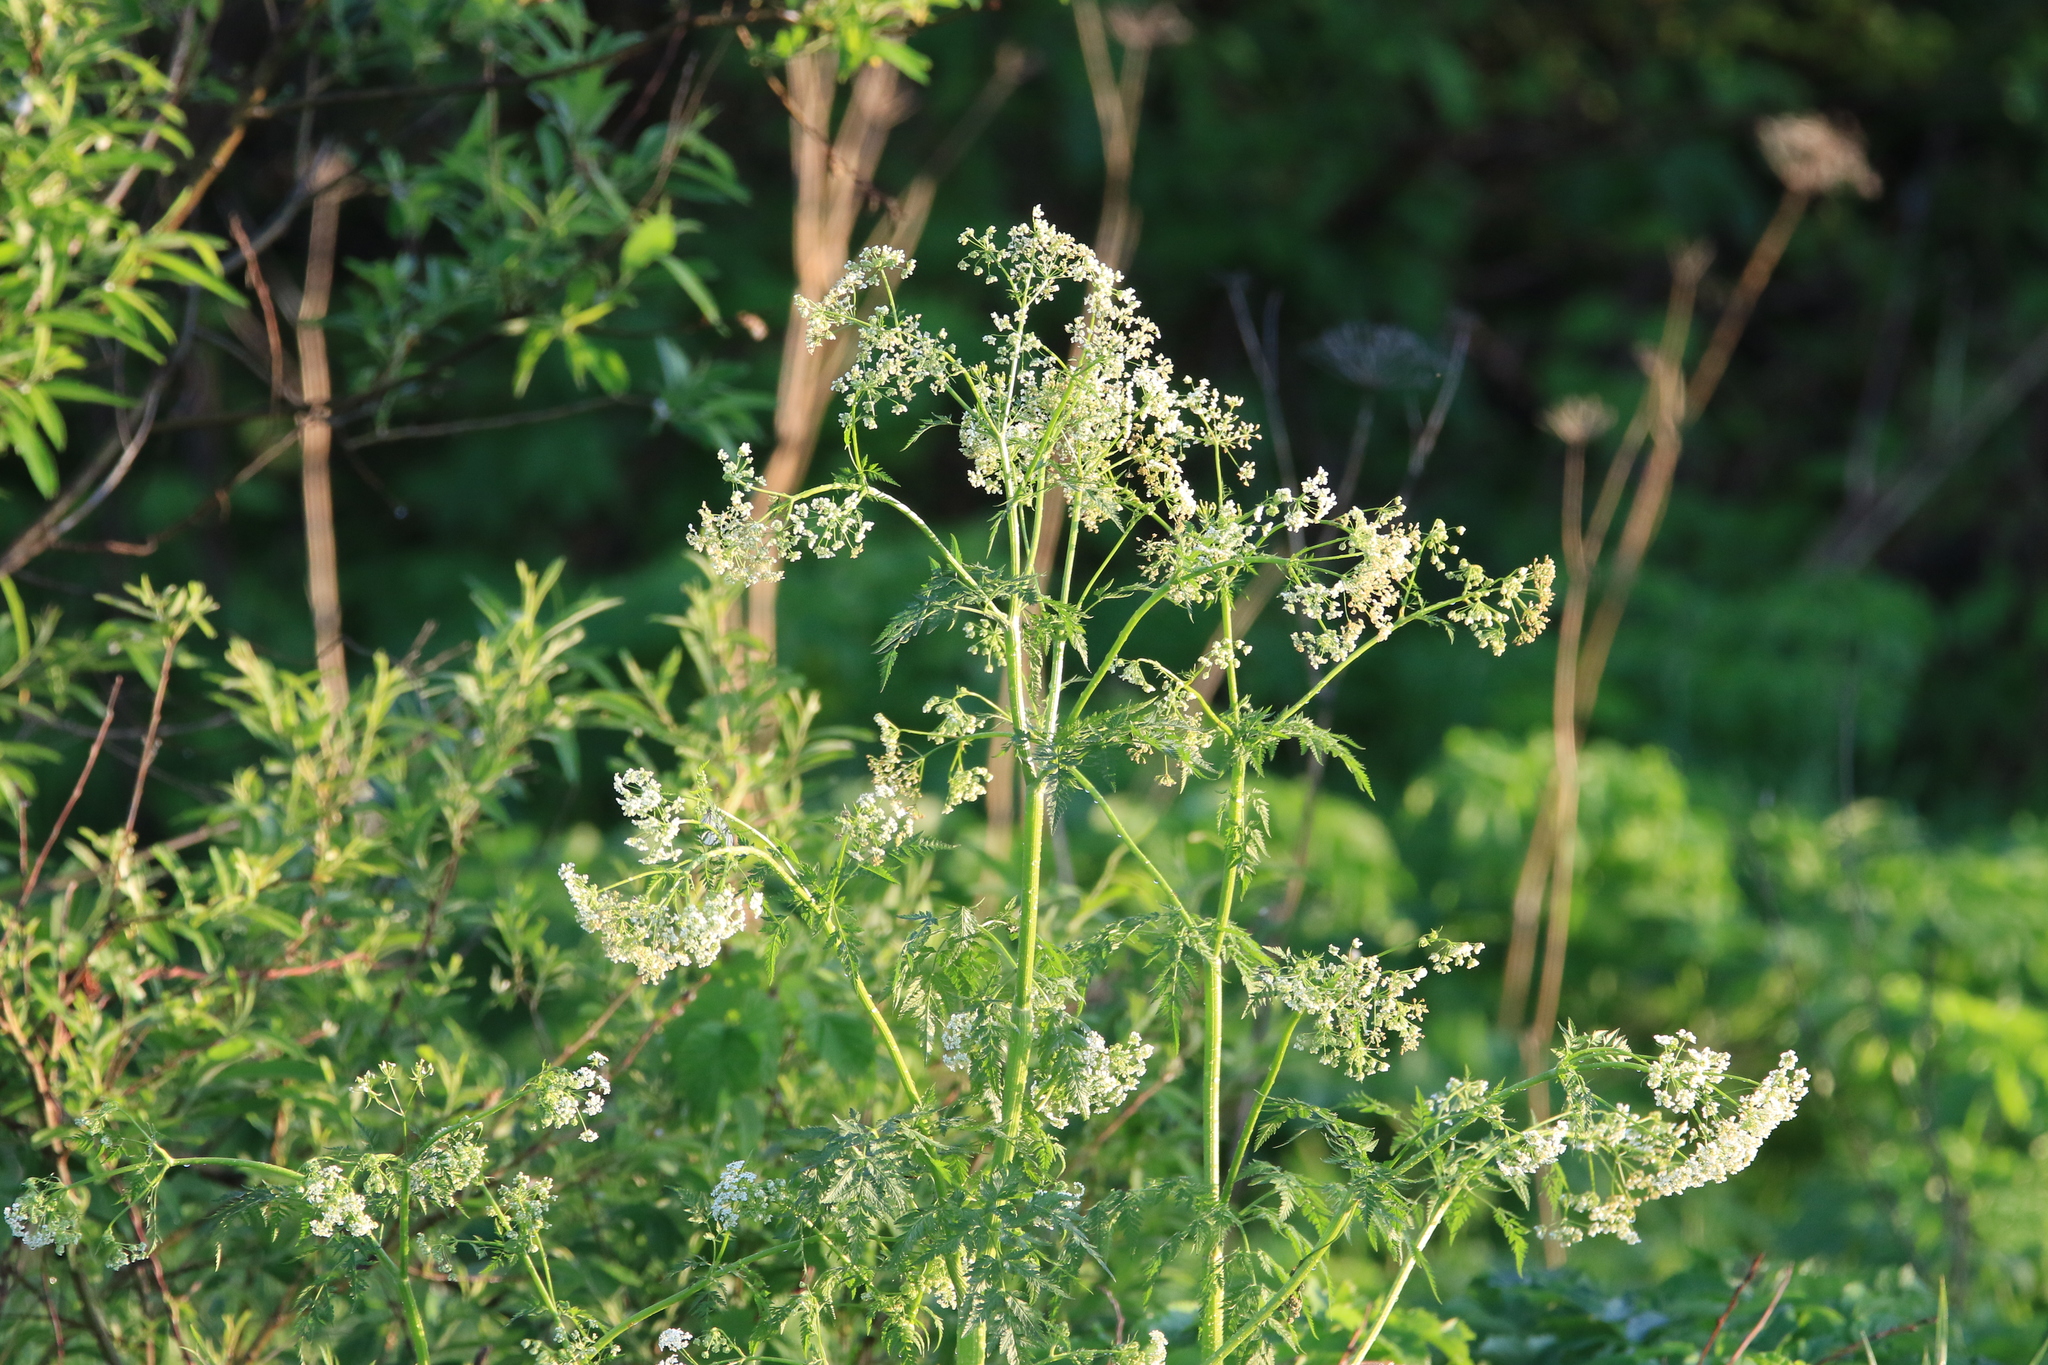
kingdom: Plantae
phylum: Tracheophyta
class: Magnoliopsida
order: Apiales
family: Apiaceae
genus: Anthriscus
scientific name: Anthriscus sylvestris
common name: Cow parsley
